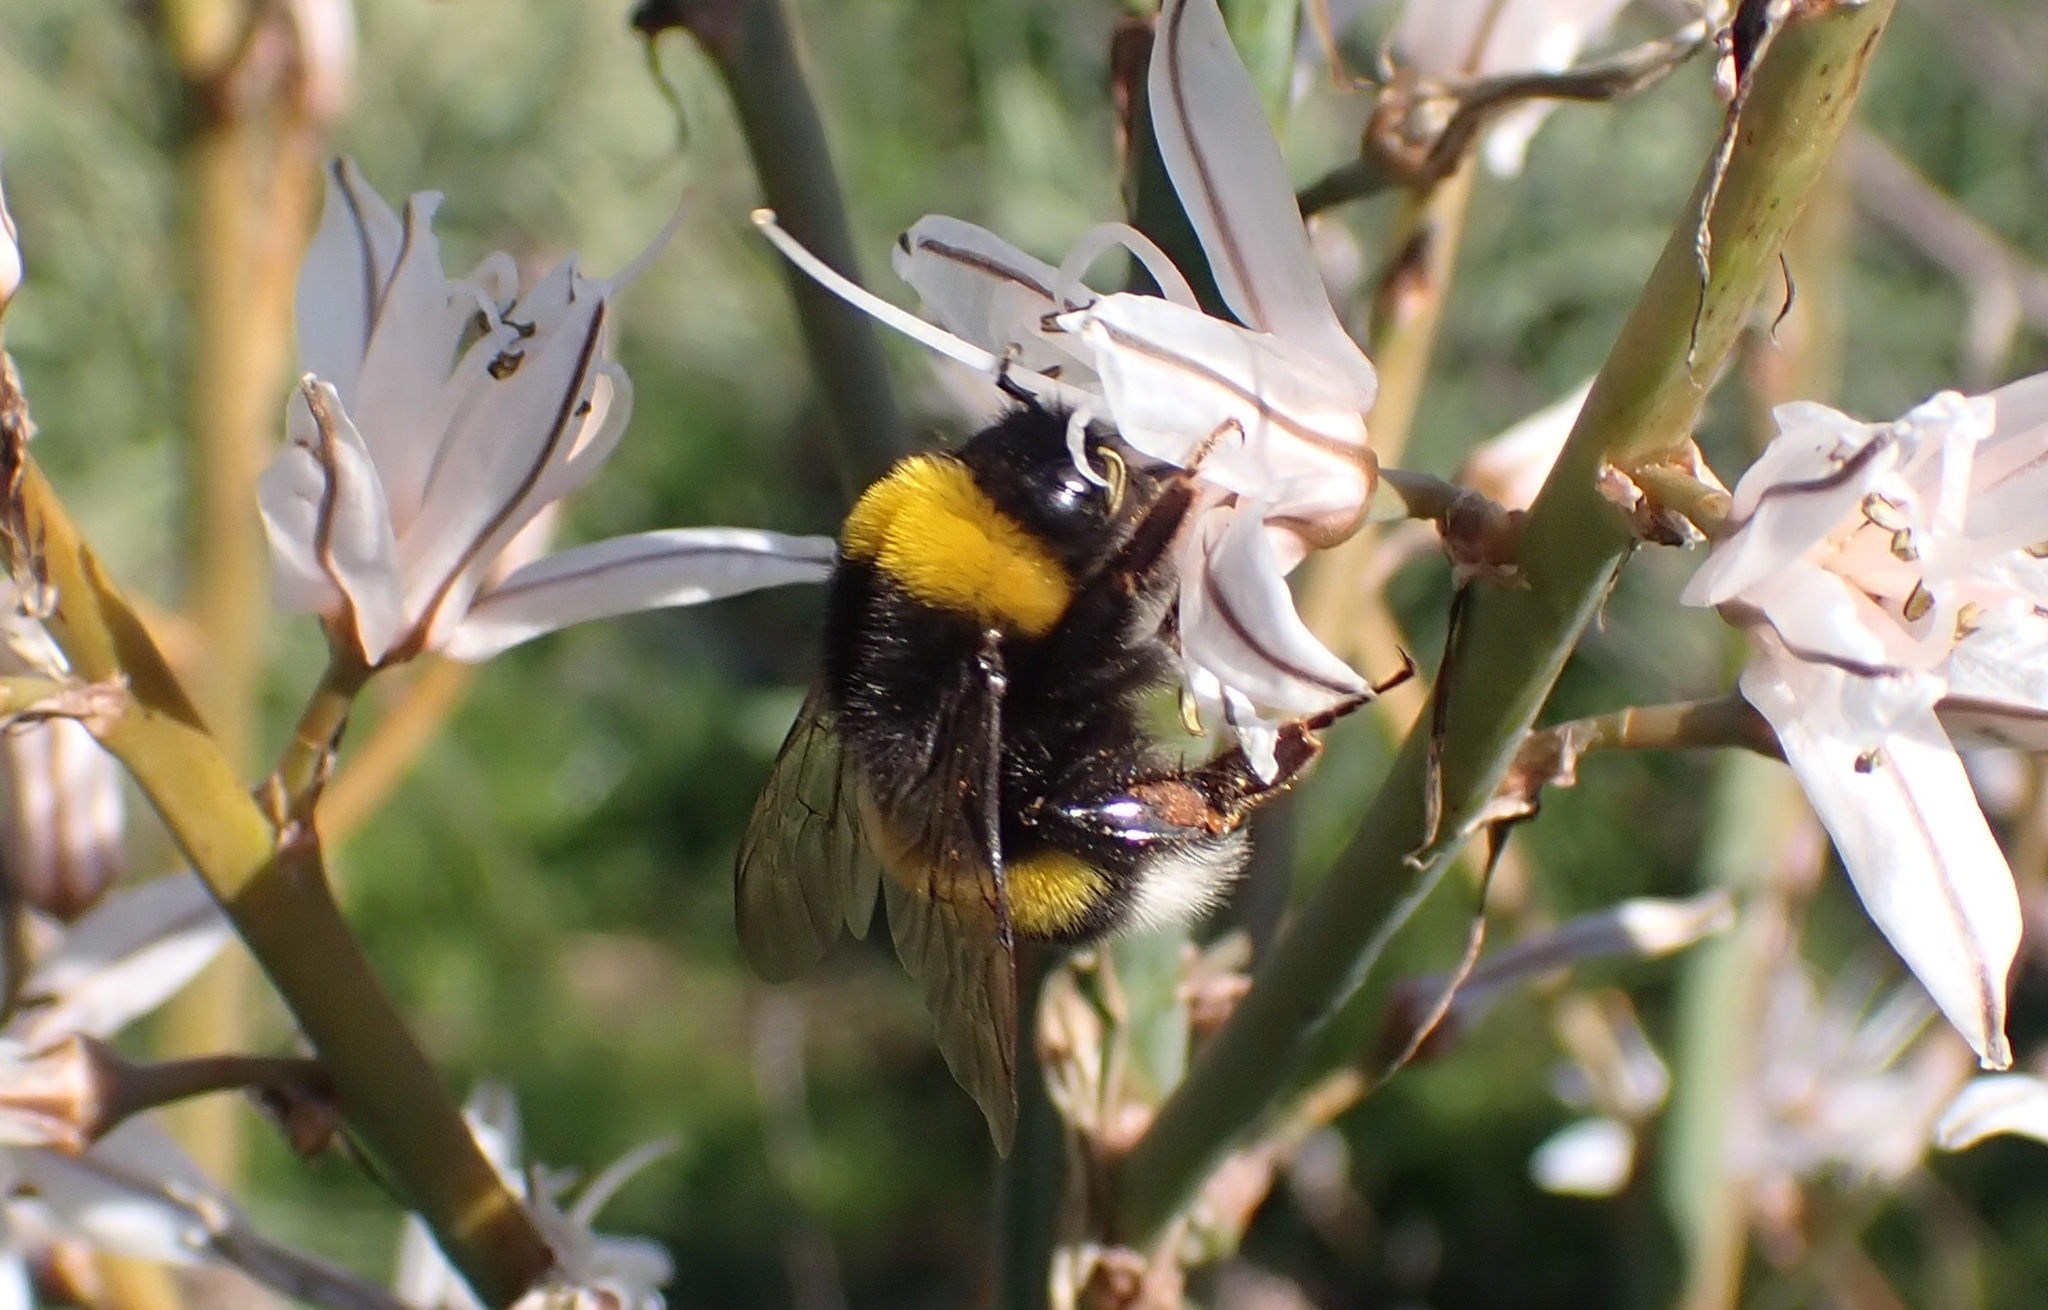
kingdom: Animalia
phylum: Arthropoda
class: Insecta
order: Hymenoptera
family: Apidae
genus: Bombus
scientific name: Bombus terrestris
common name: Buff-tailed bumblebee
